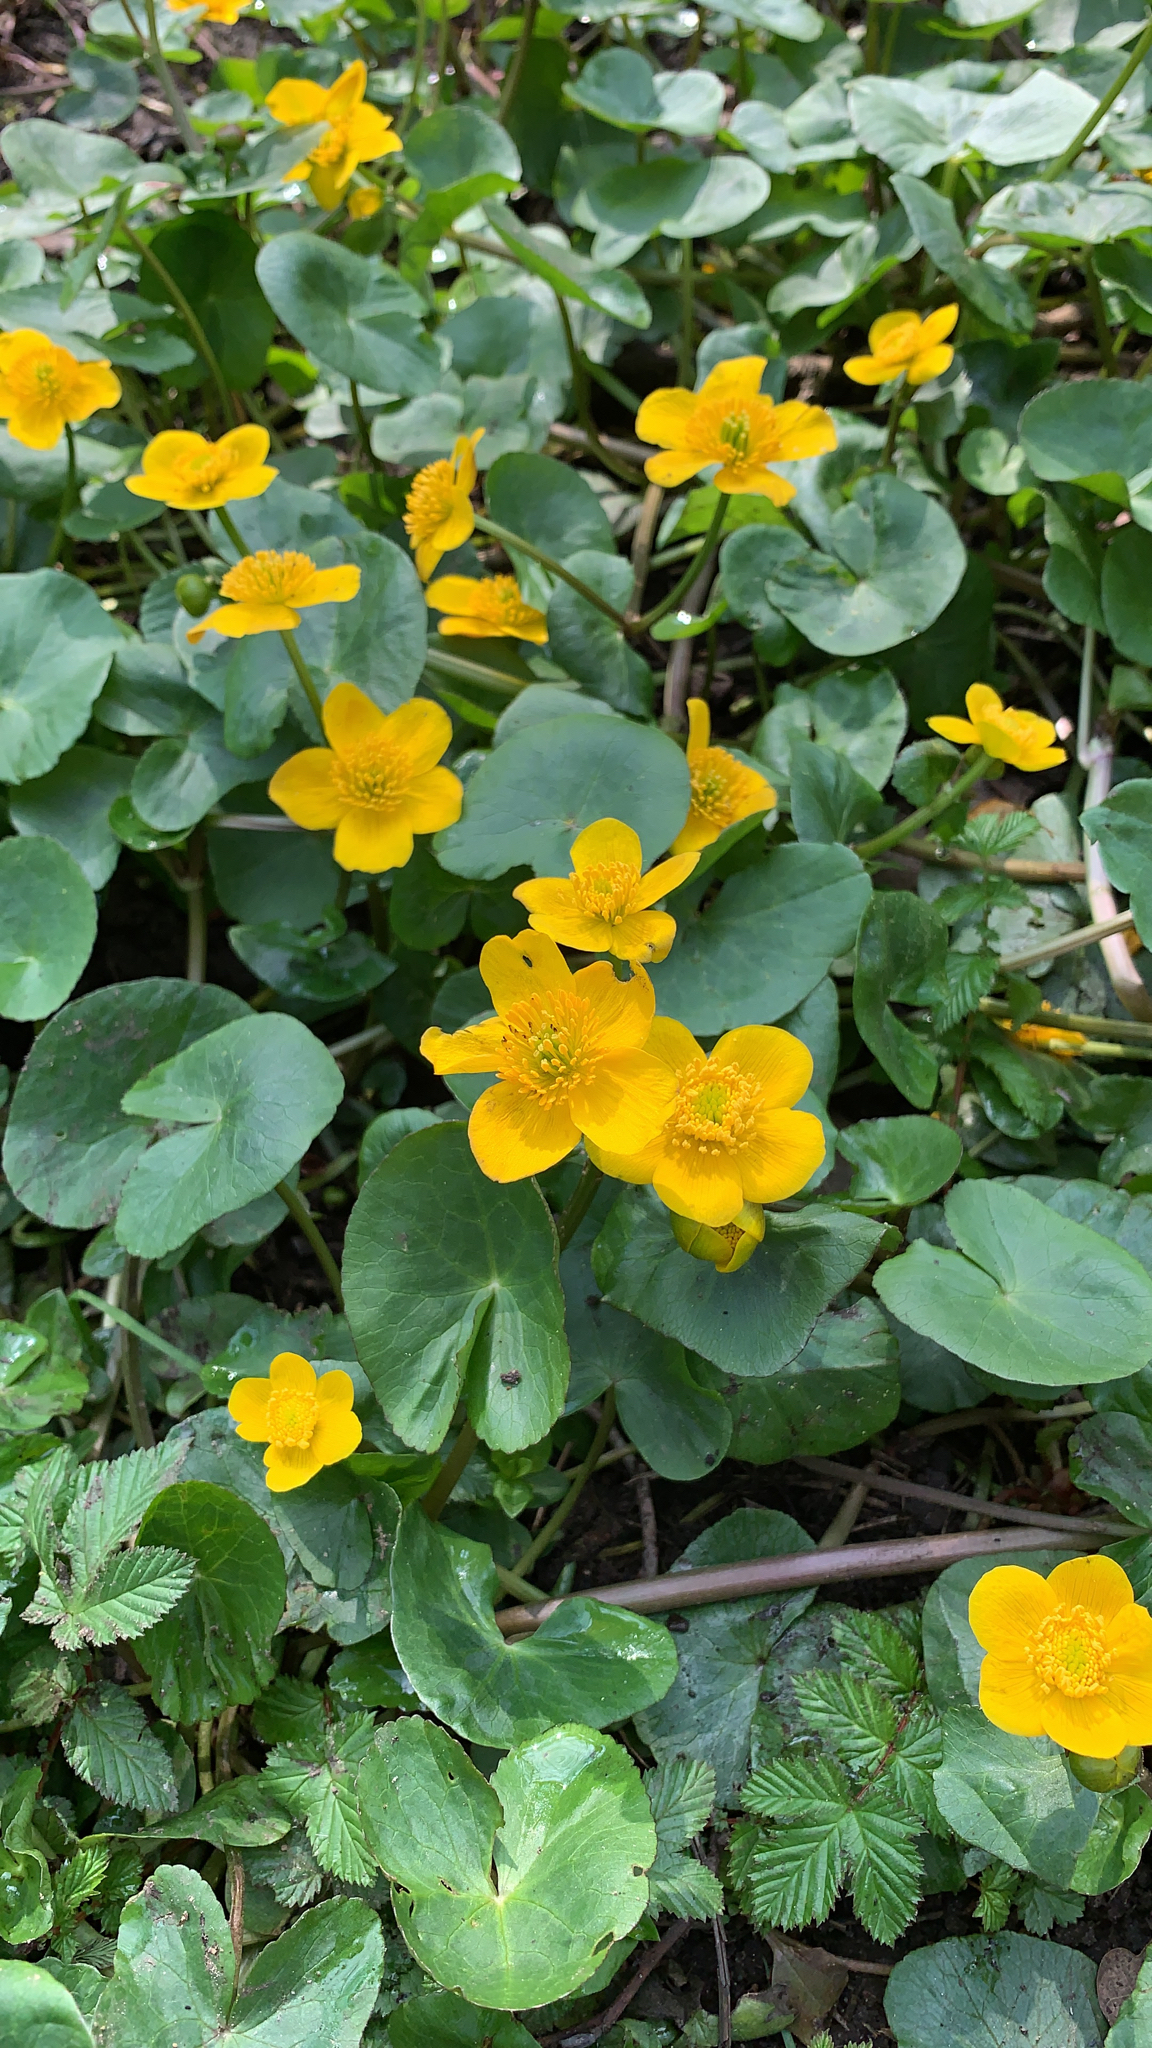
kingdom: Plantae
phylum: Tracheophyta
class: Magnoliopsida
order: Ranunculales
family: Ranunculaceae
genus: Caltha
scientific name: Caltha palustris
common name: Marsh marigold
